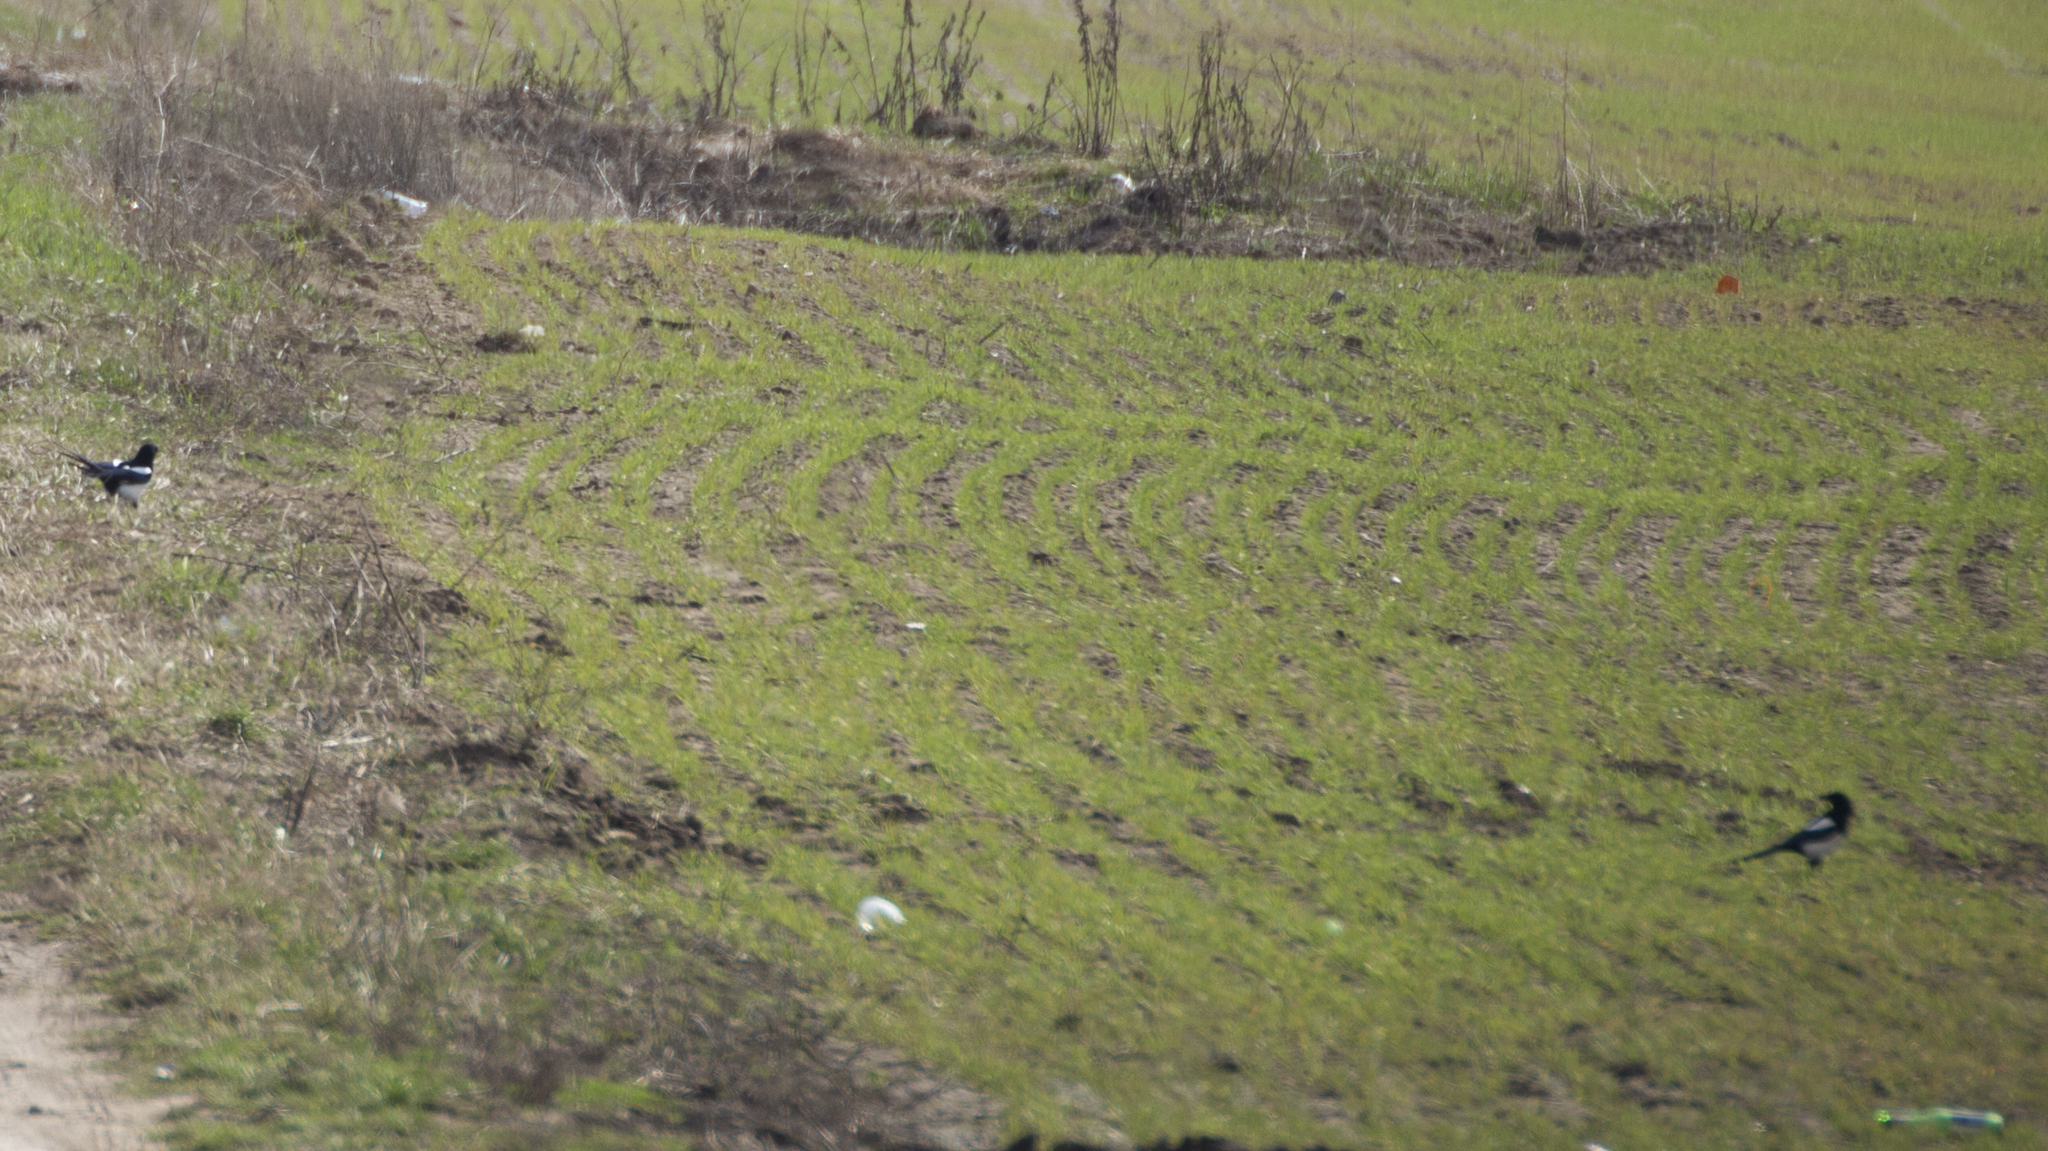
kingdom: Animalia
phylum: Chordata
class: Aves
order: Passeriformes
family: Corvidae
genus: Pica
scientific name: Pica pica
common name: Eurasian magpie
